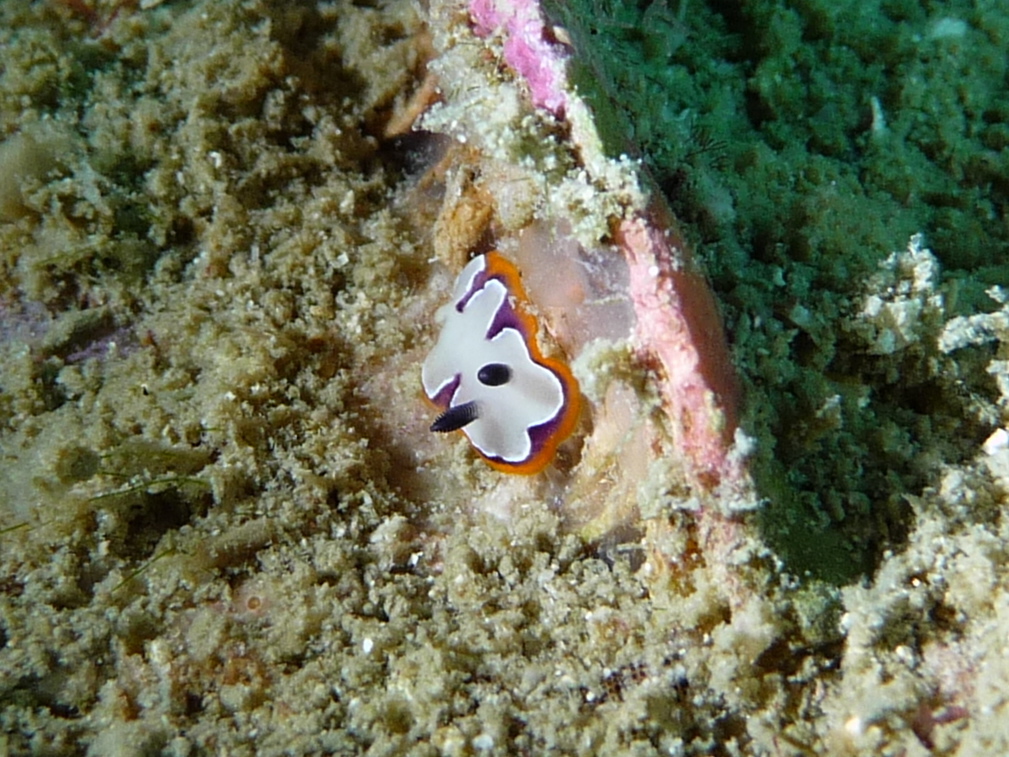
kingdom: Animalia
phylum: Mollusca
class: Gastropoda
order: Nudibranchia
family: Chromodorididae
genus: Goniobranchus
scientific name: Goniobranchus fidelis
